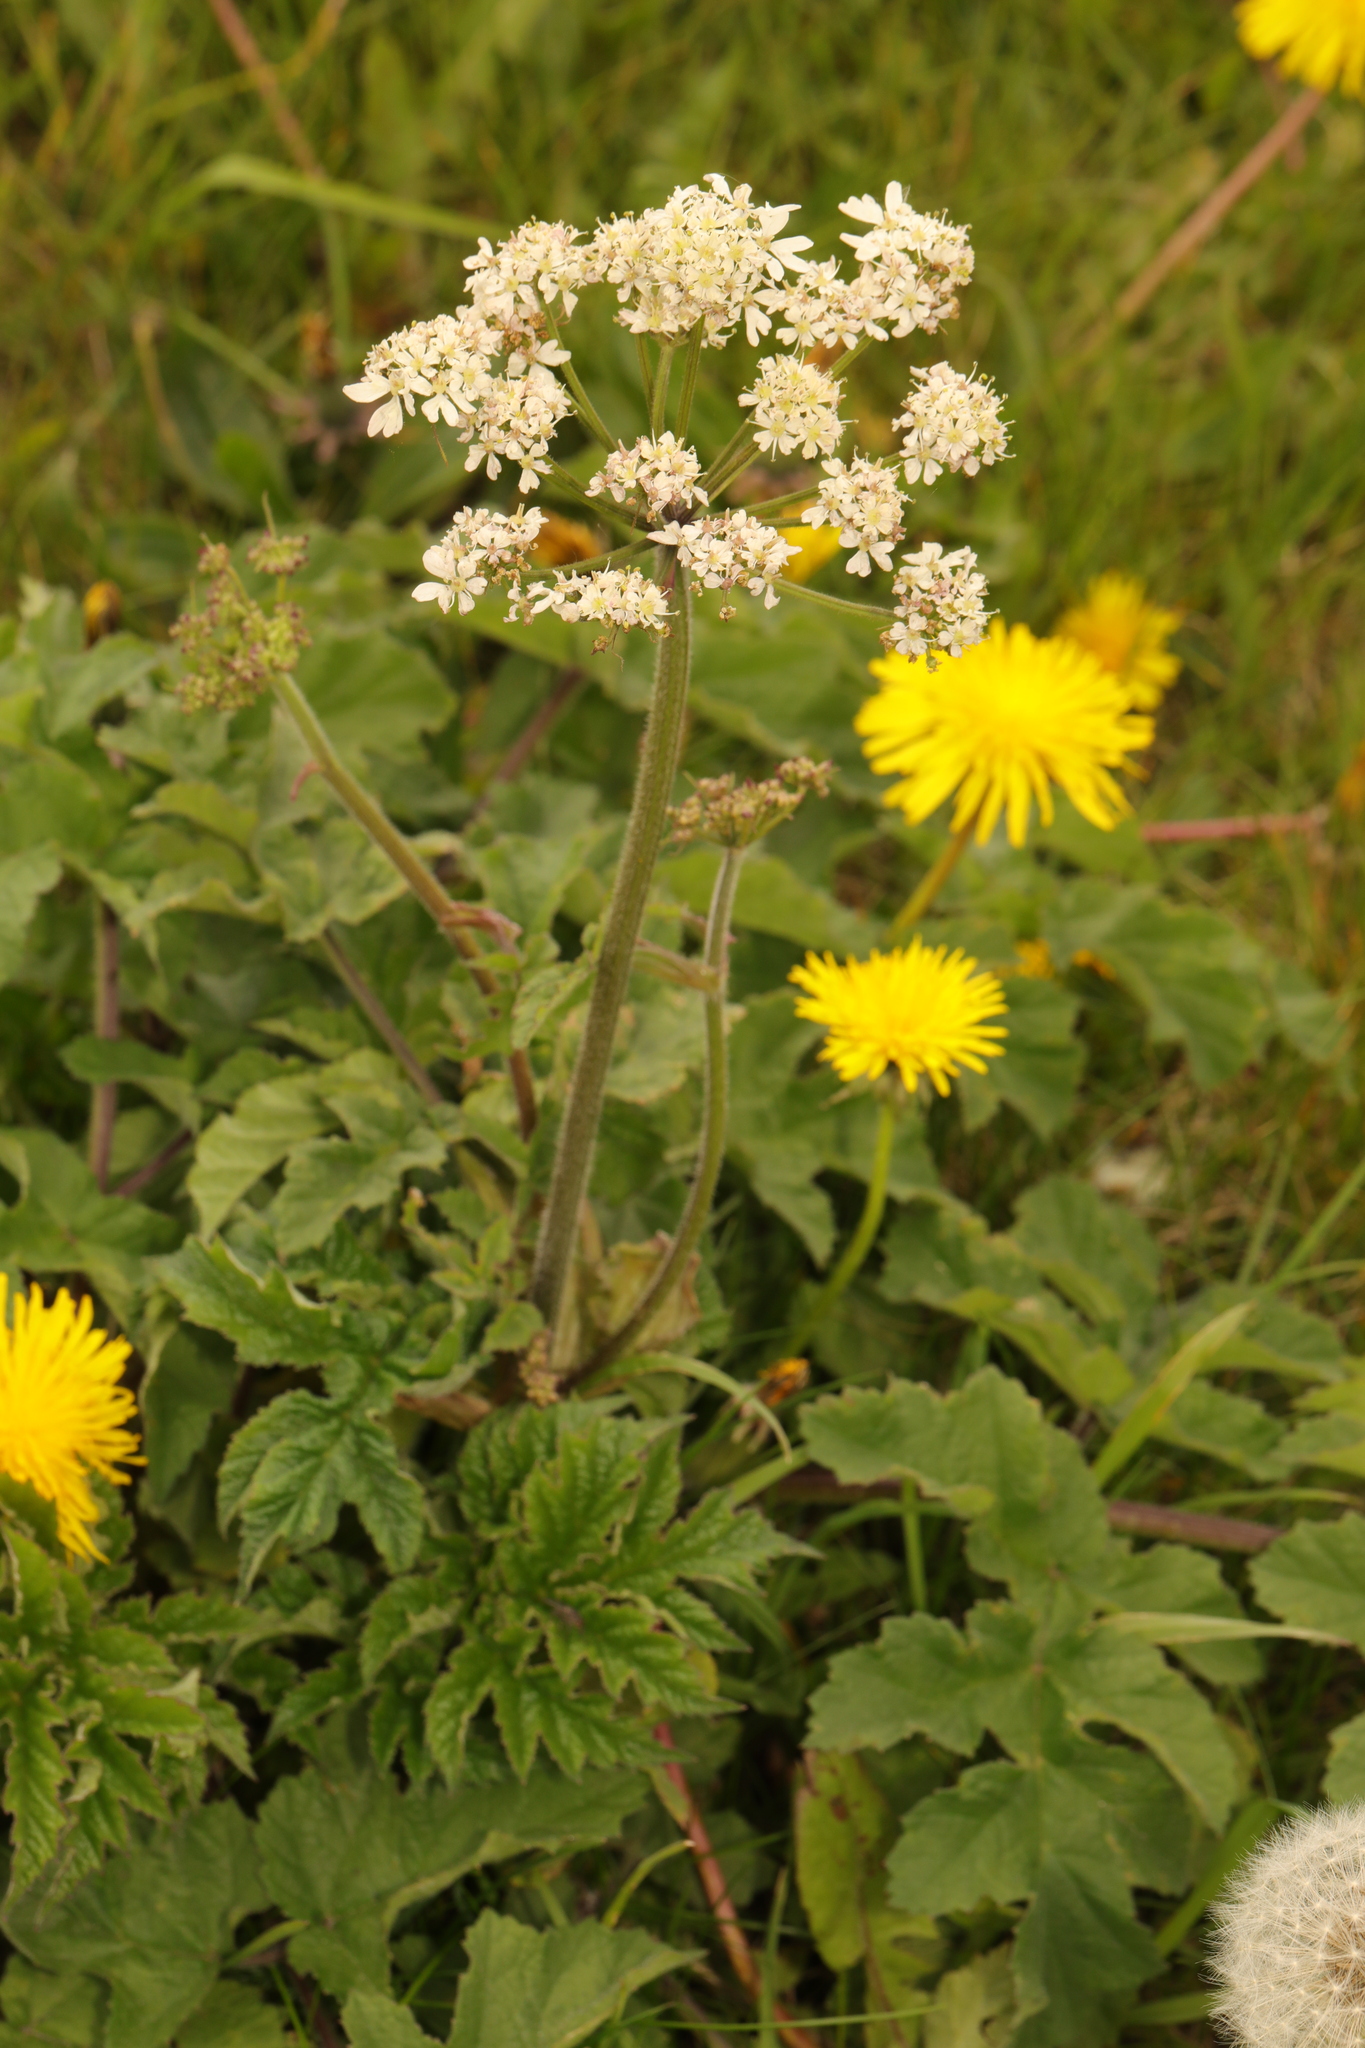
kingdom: Plantae
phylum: Tracheophyta
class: Magnoliopsida
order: Apiales
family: Apiaceae
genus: Heracleum
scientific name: Heracleum sphondylium
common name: Hogweed
